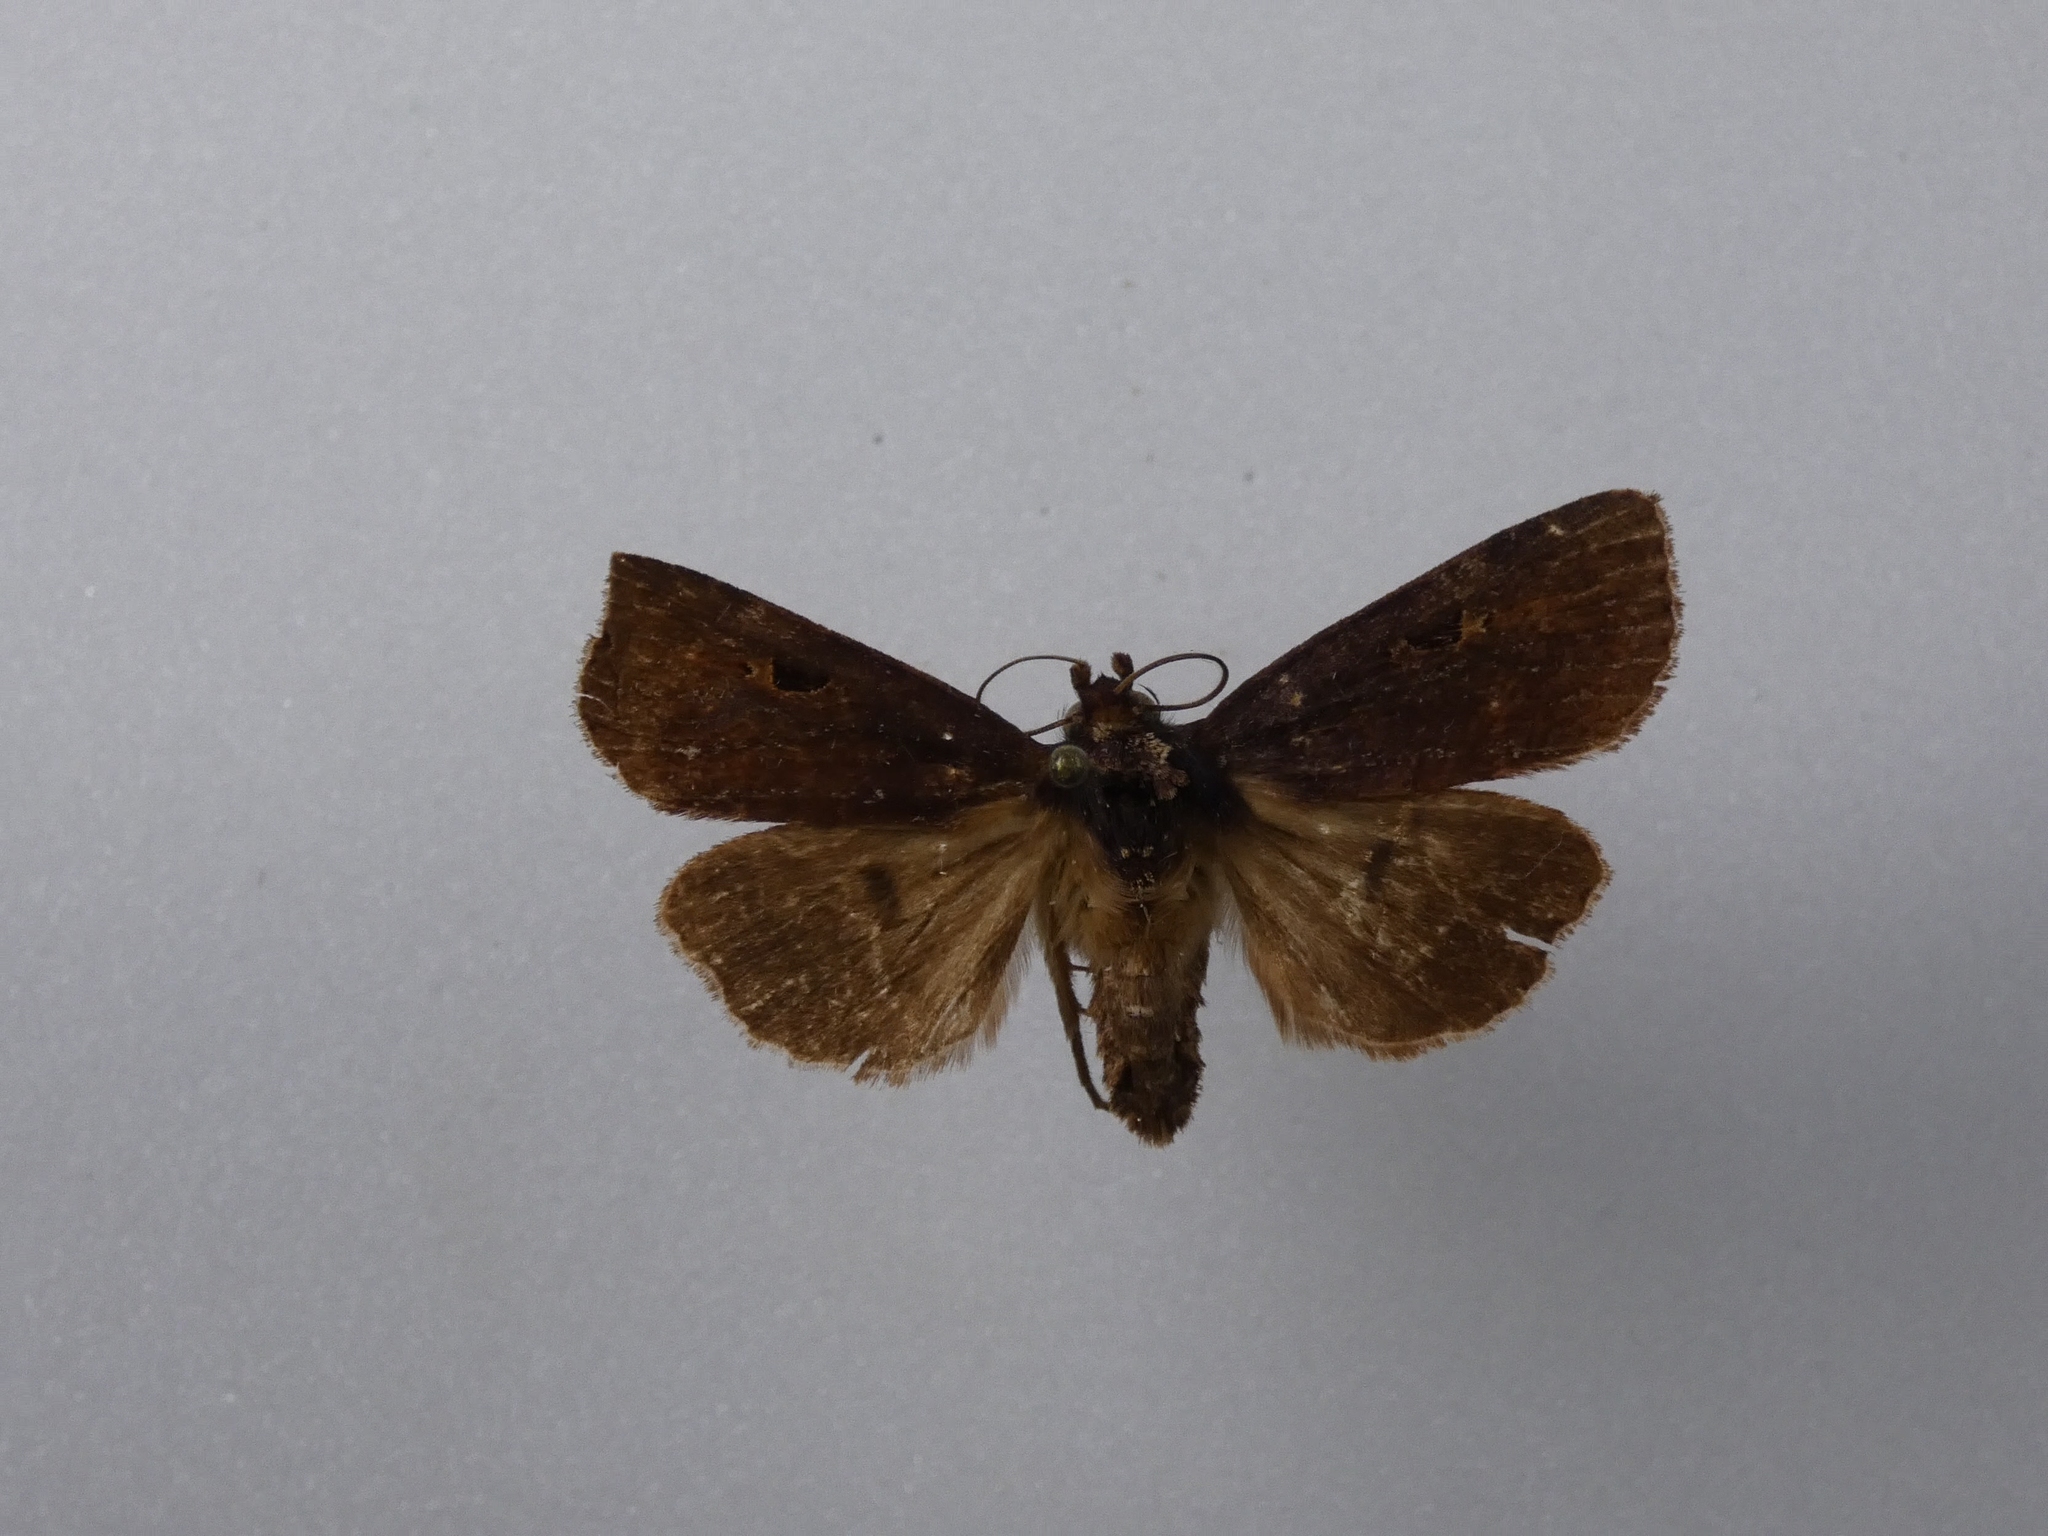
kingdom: Animalia
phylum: Arthropoda
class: Insecta
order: Lepidoptera
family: Noctuidae
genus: Austramathes
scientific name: Austramathes purpurea
